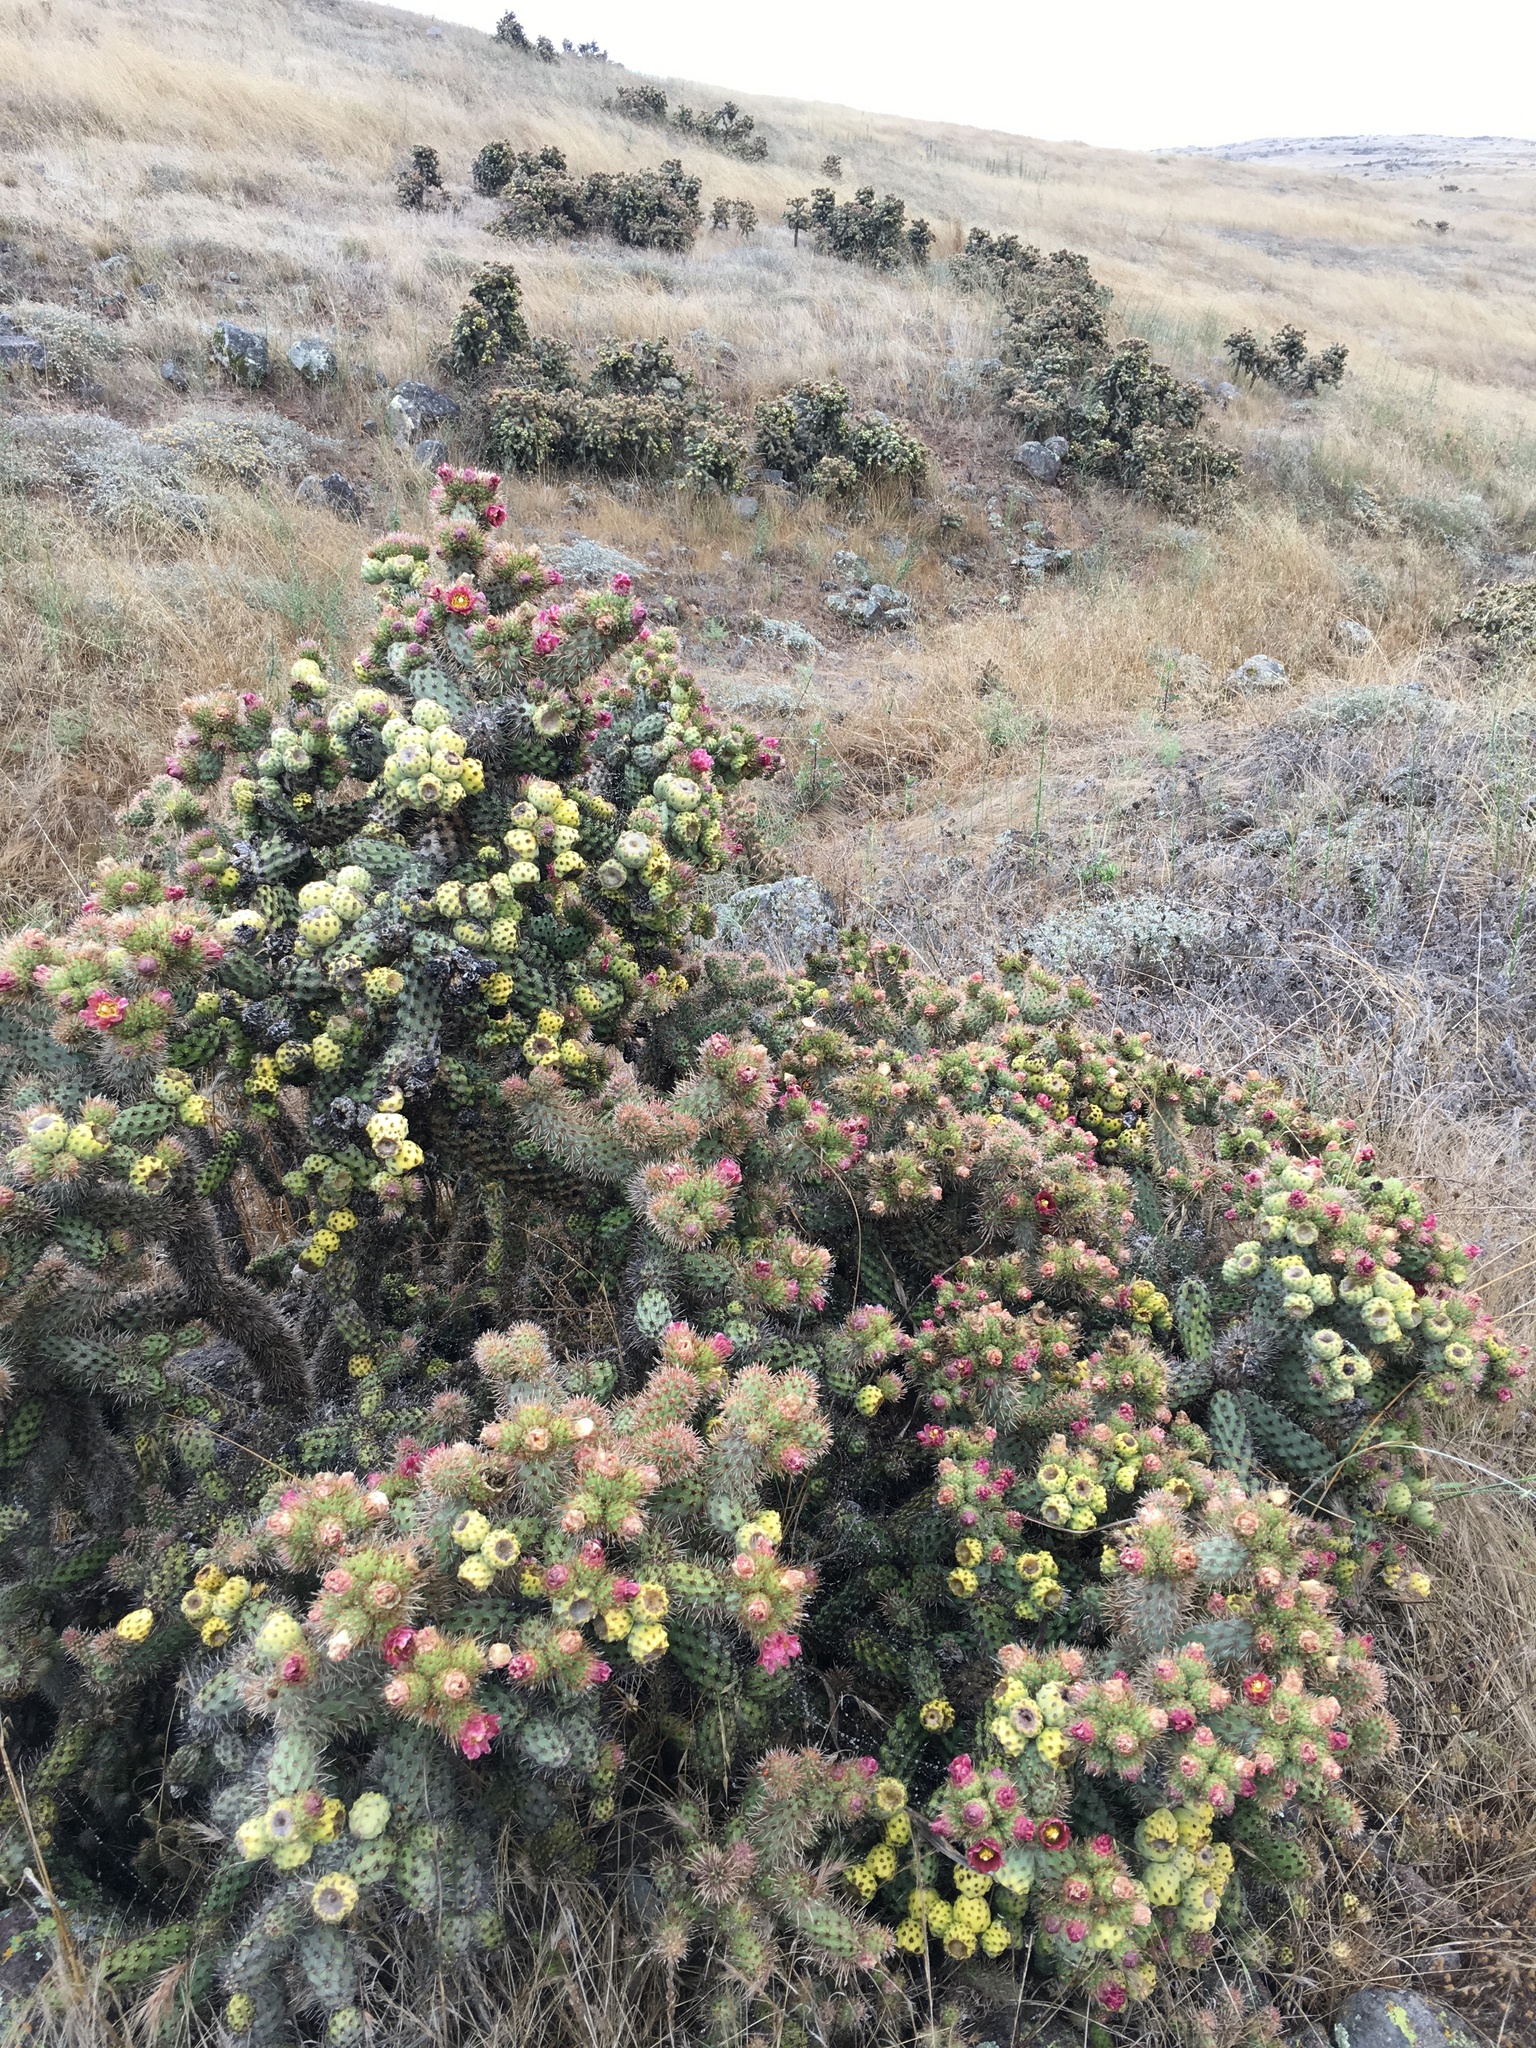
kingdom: Plantae
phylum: Tracheophyta
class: Magnoliopsida
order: Caryophyllales
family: Cactaceae
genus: Cylindropuntia
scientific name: Cylindropuntia prolifera
